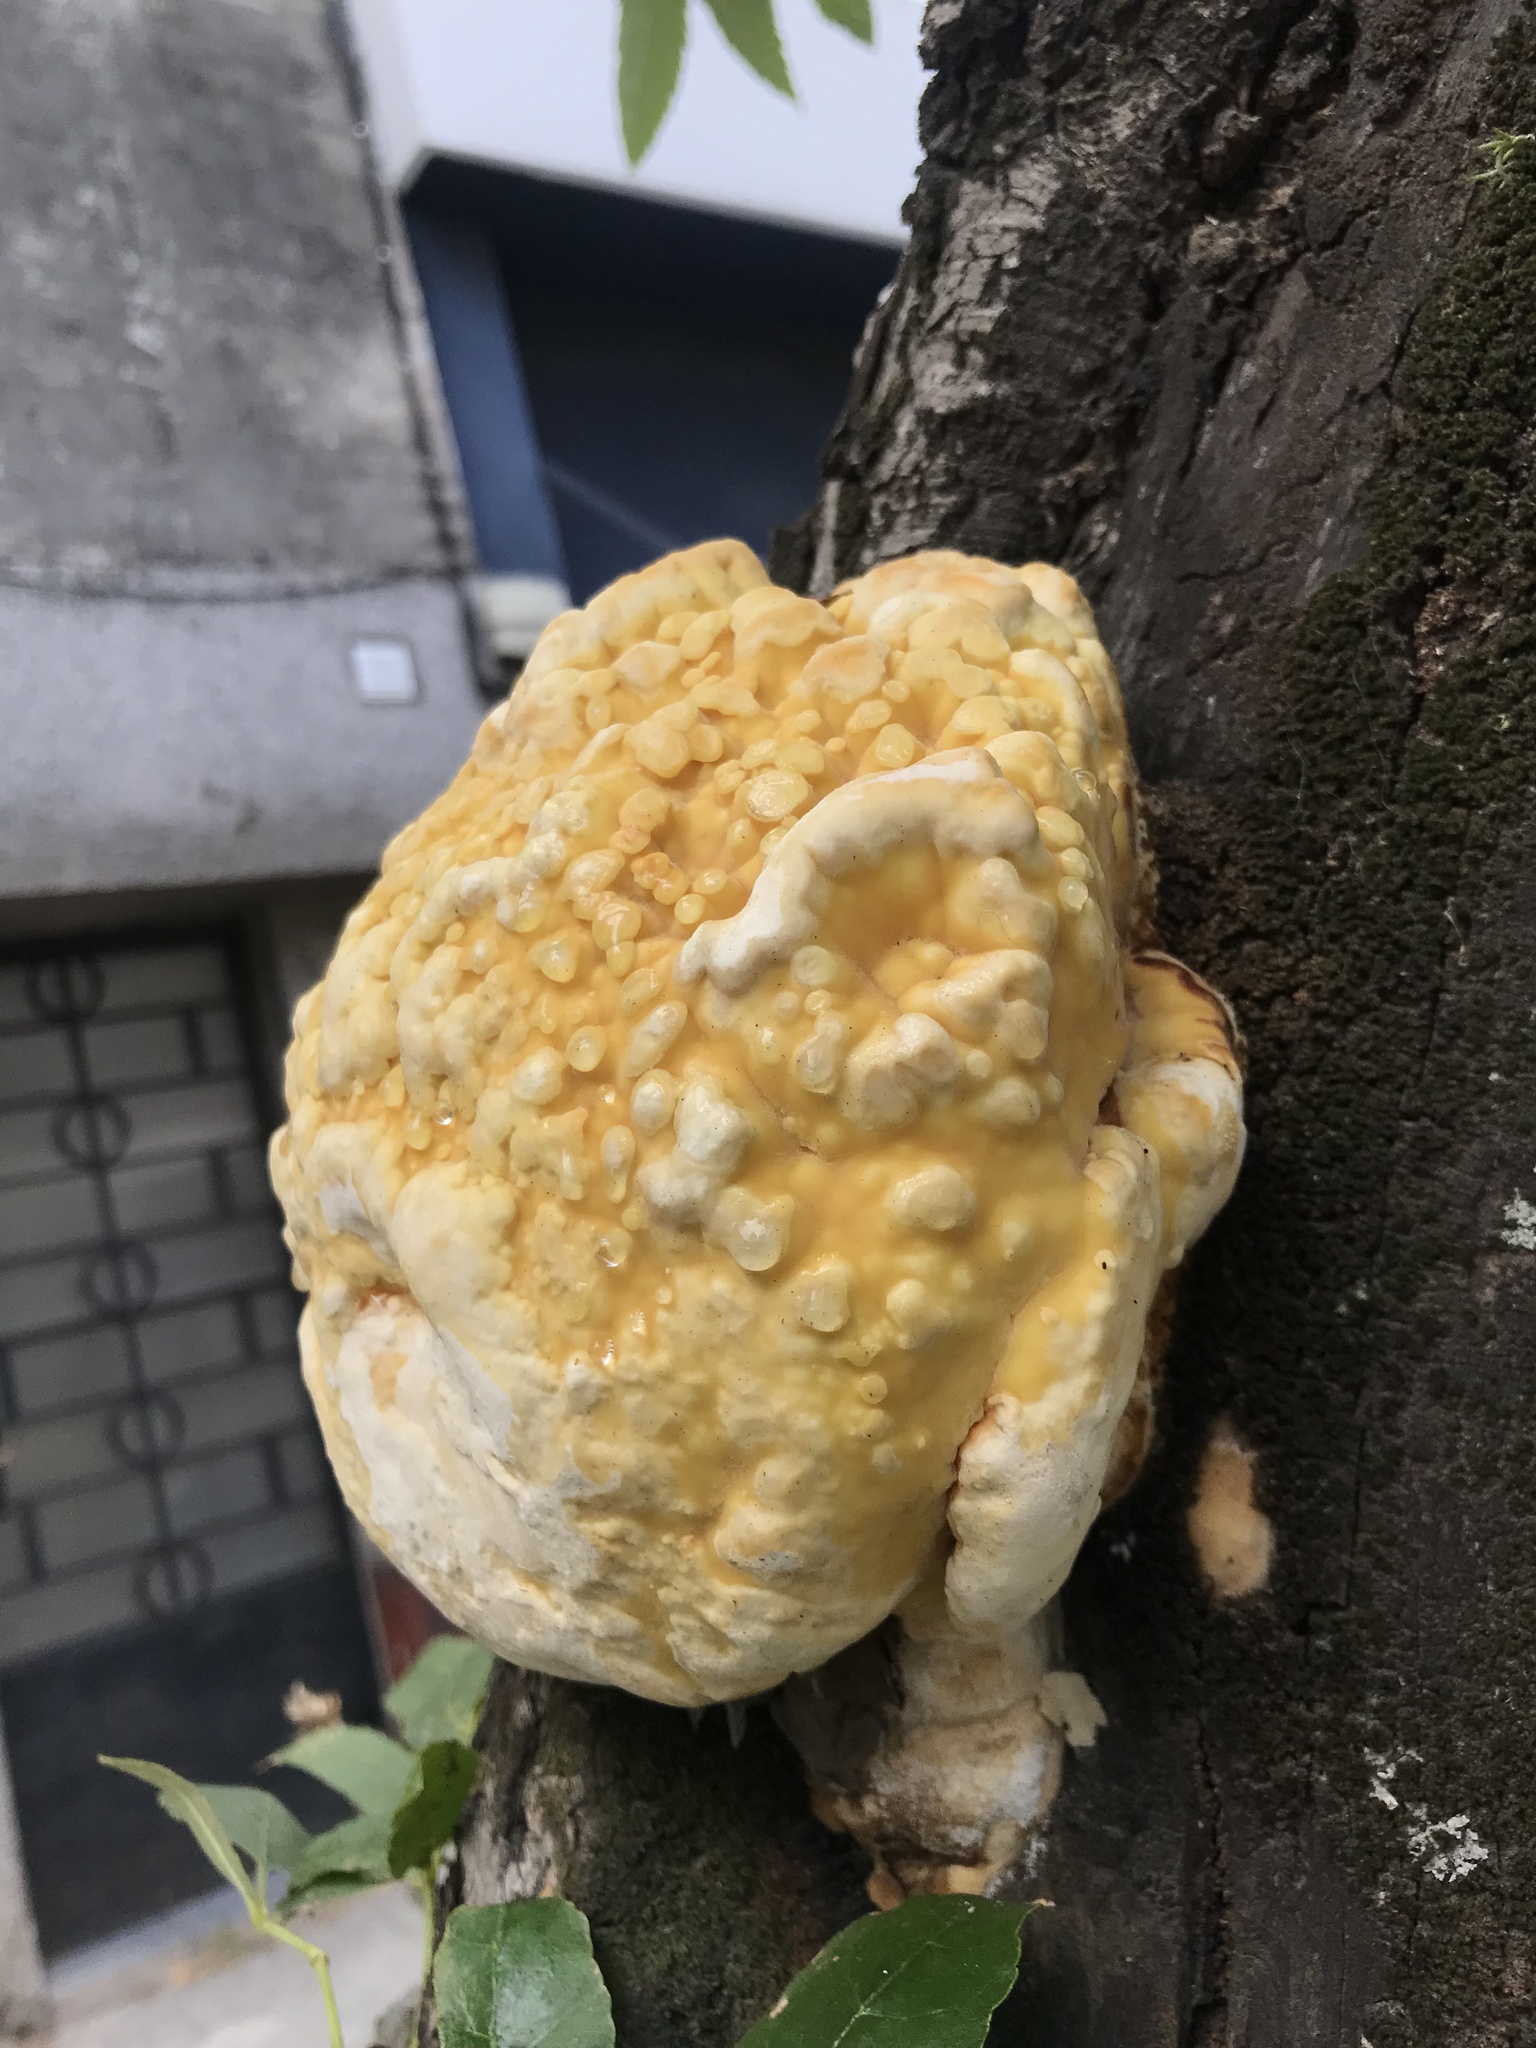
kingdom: Fungi
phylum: Basidiomycota
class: Agaricomycetes
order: Polyporales
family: Laetiporaceae
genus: Laetiporus
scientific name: Laetiporus sulphureus
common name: Chicken of the woods
